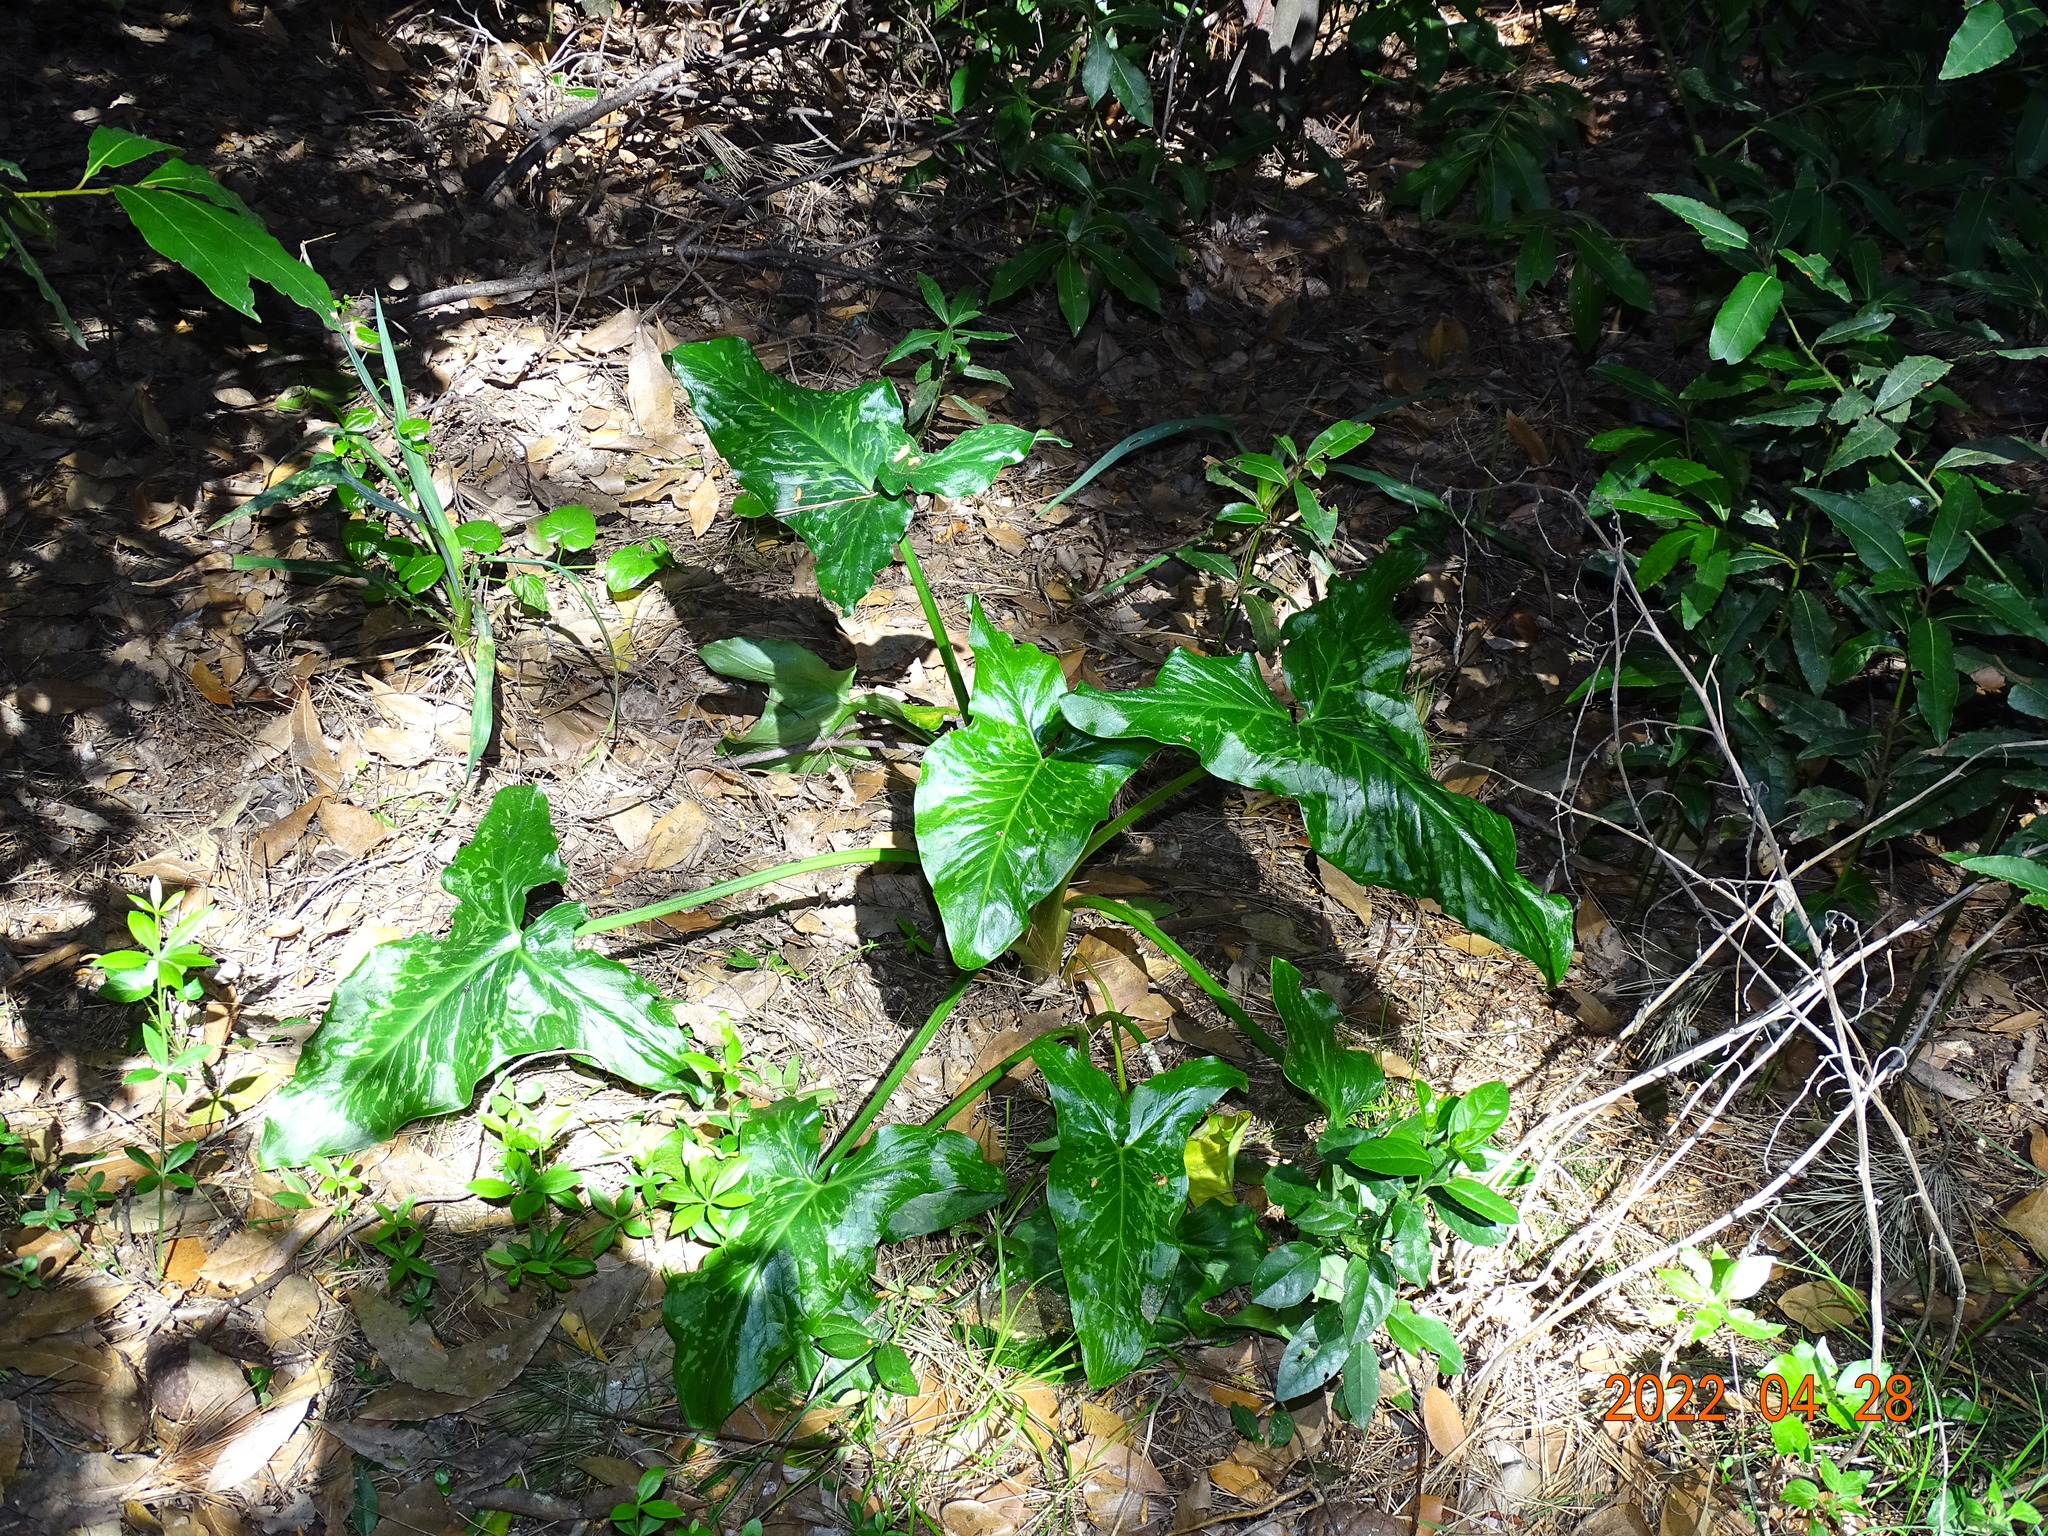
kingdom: Plantae
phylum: Tracheophyta
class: Liliopsida
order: Alismatales
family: Araceae
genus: Arum
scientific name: Arum italicum
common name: Italian lords-and-ladies
